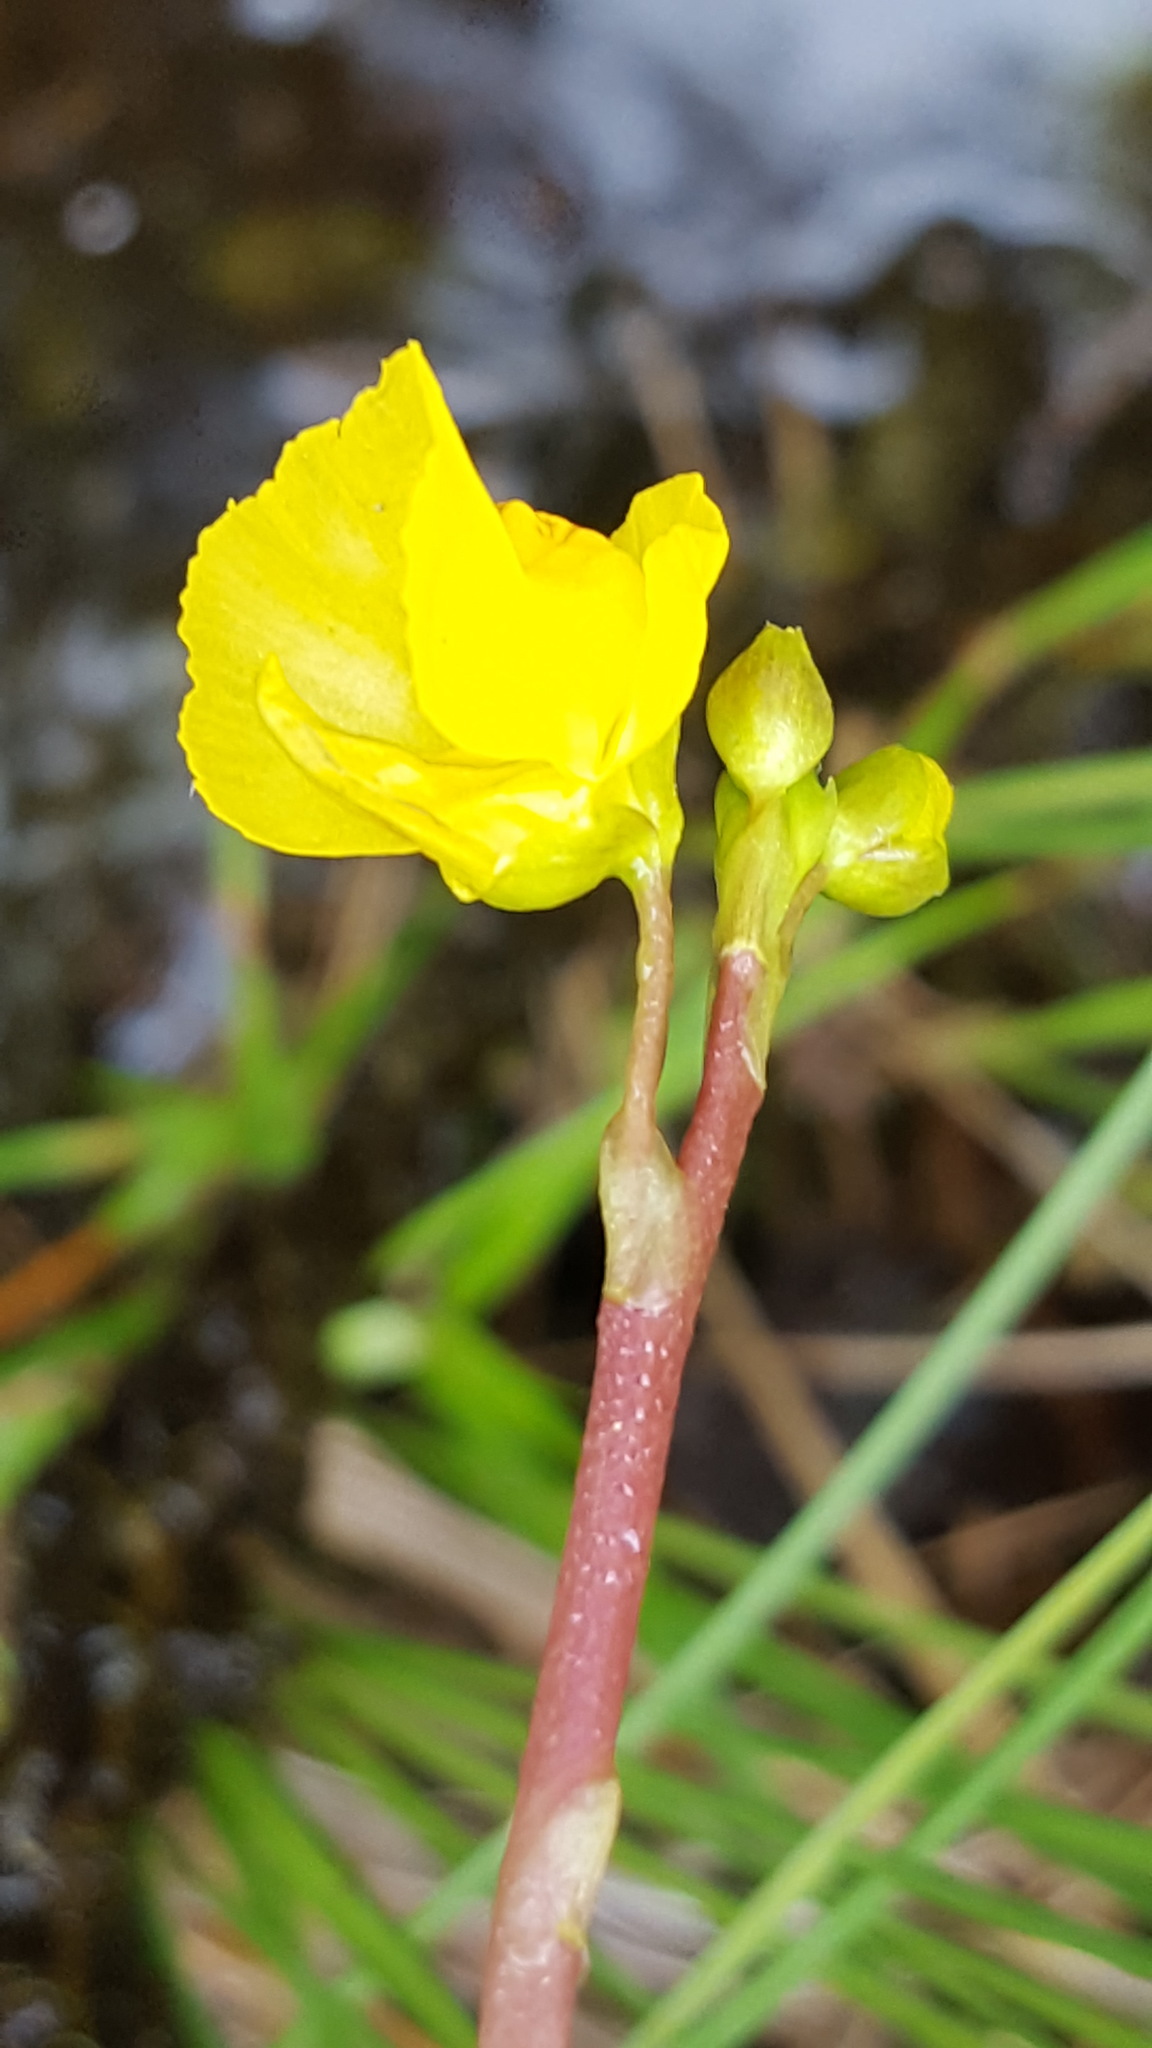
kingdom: Plantae
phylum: Tracheophyta
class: Magnoliopsida
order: Lamiales
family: Lentibulariaceae
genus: Utricularia
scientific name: Utricularia macrorhiza
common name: Common bladderwort
